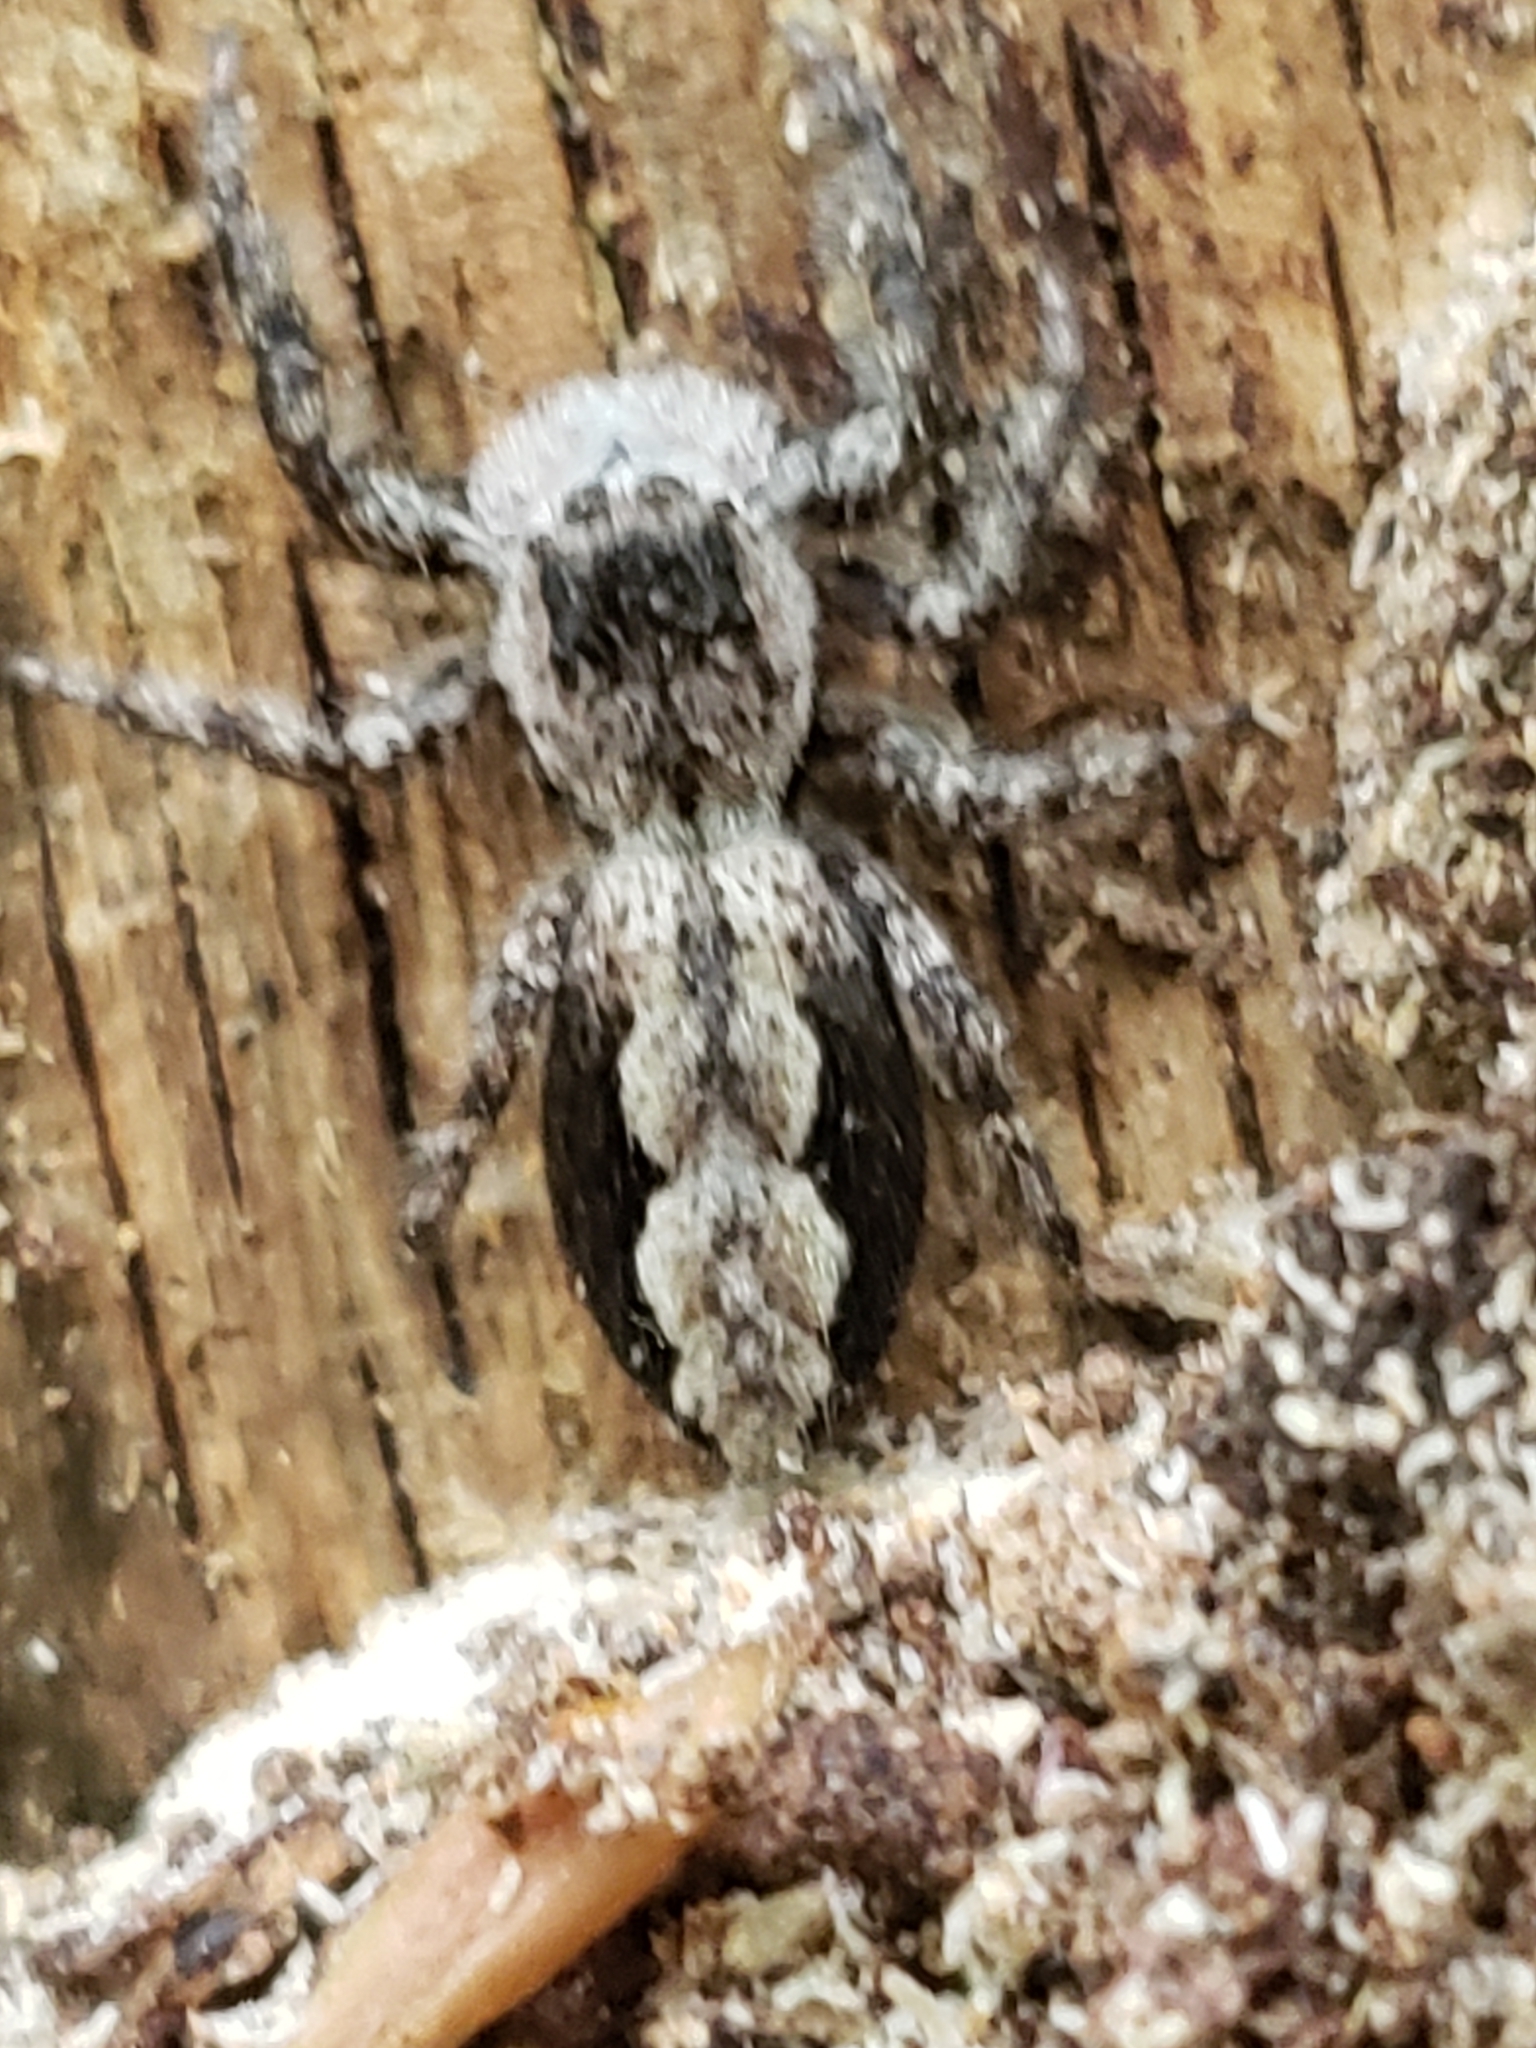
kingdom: Animalia
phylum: Arthropoda
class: Arachnida
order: Araneae
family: Salticidae
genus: Platycryptus
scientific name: Platycryptus undatus
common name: Tan jumping spider
